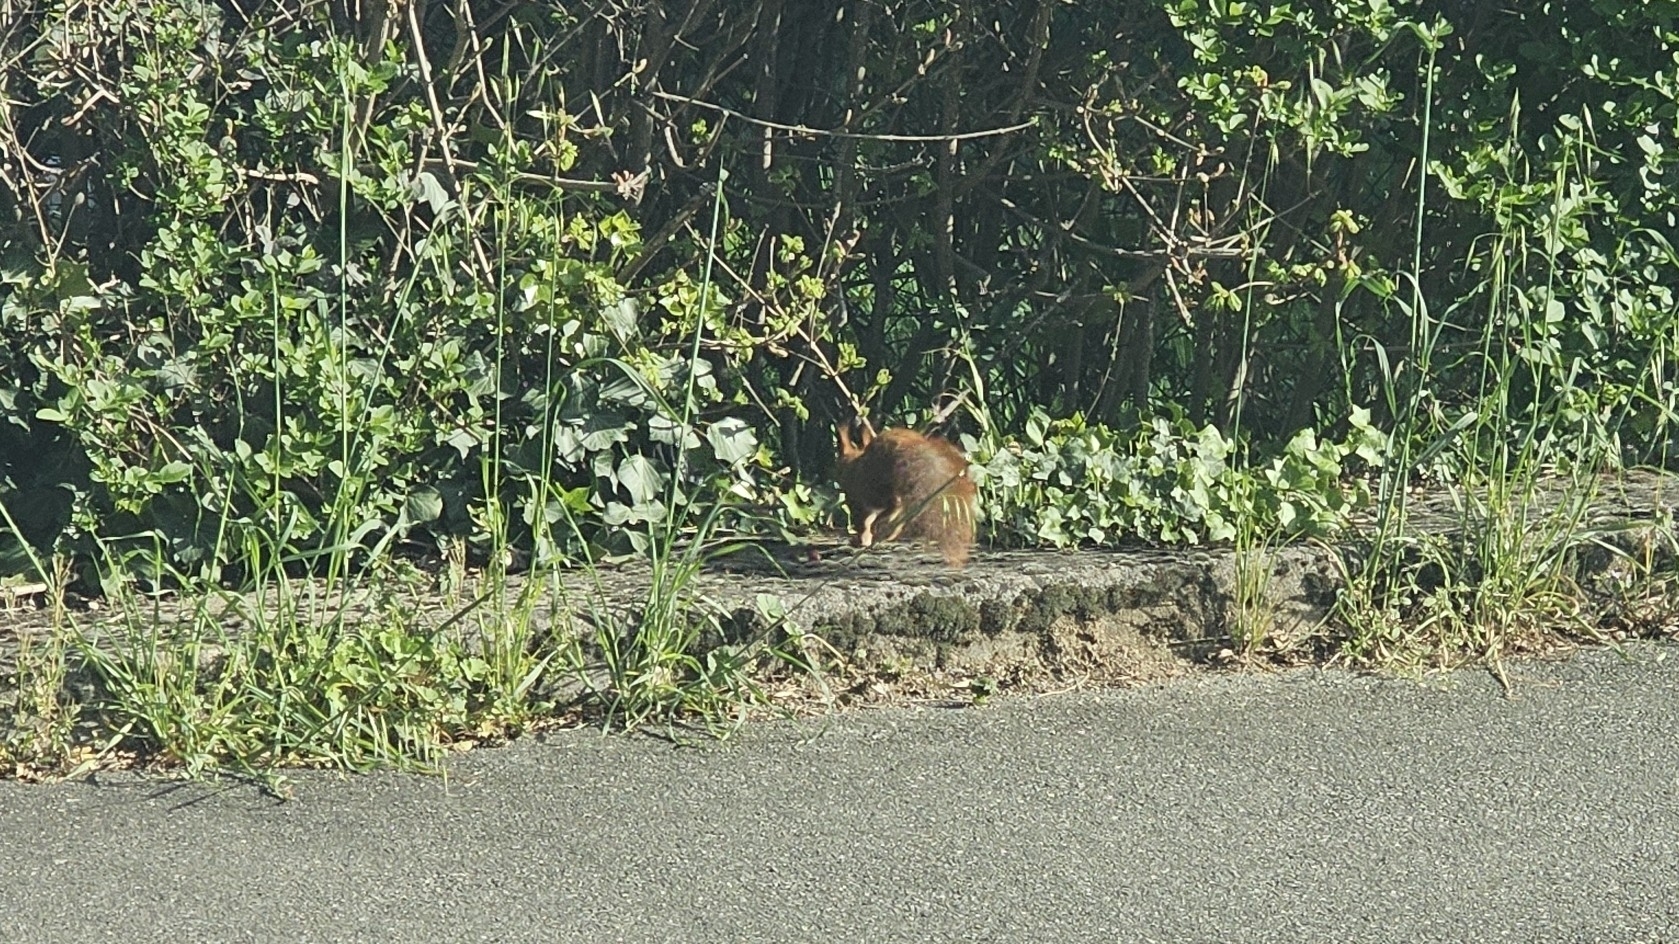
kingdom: Animalia
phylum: Chordata
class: Mammalia
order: Rodentia
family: Sciuridae
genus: Sciurus
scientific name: Sciurus vulgaris
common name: Eurasian red squirrel
